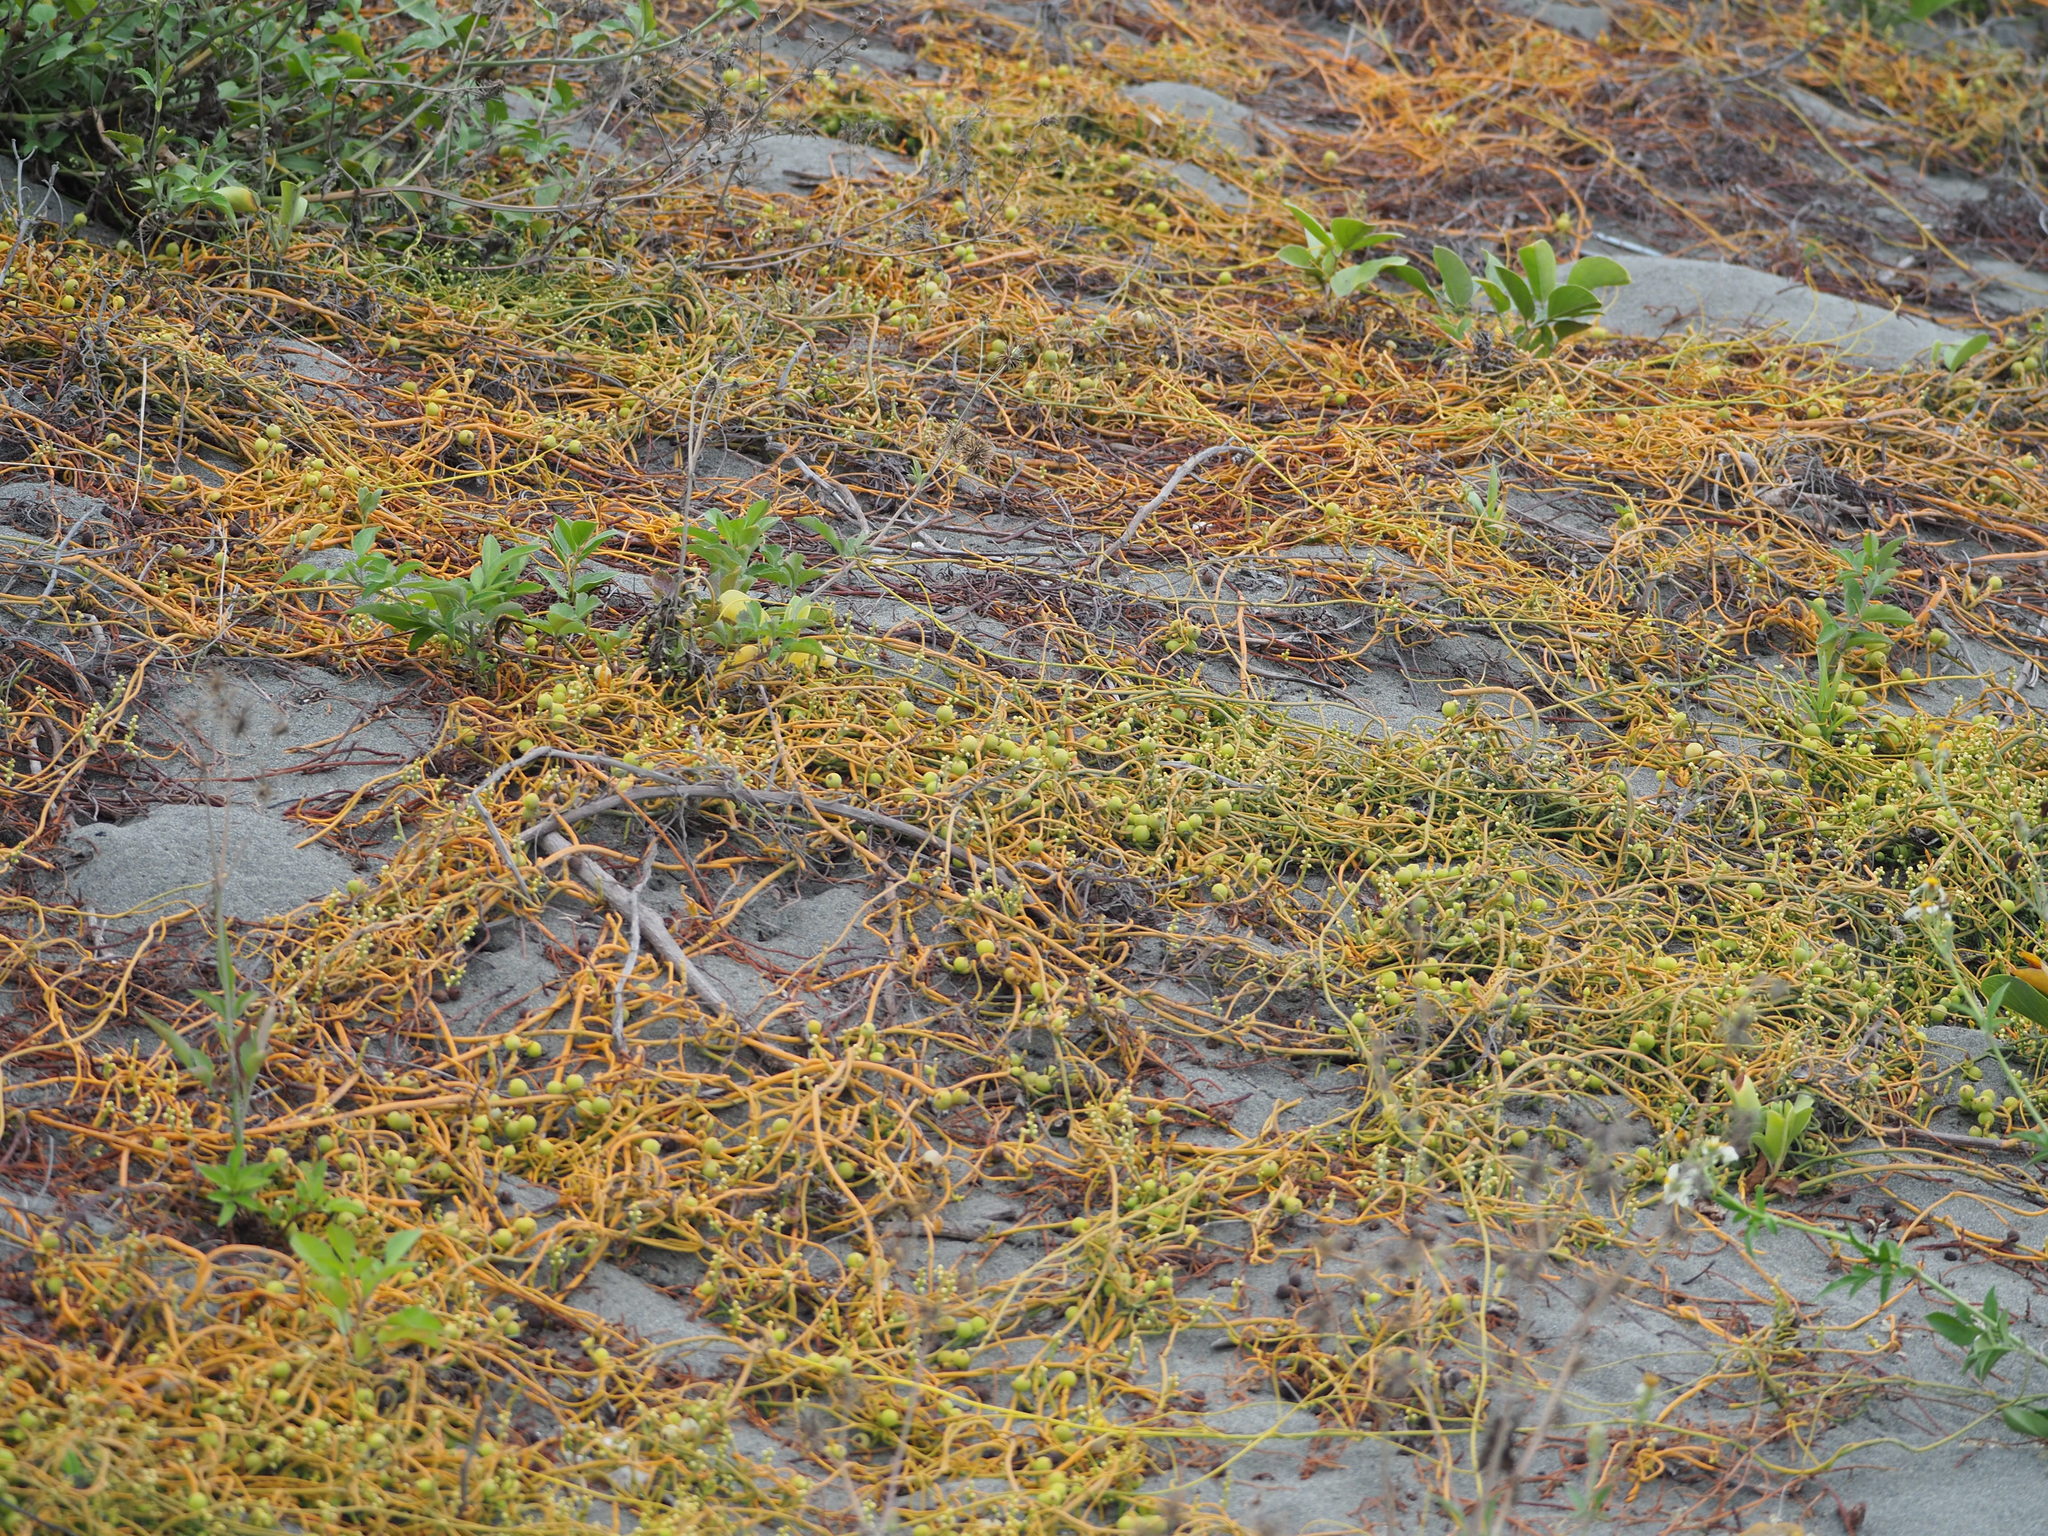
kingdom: Plantae
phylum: Tracheophyta
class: Magnoliopsida
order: Laurales
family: Lauraceae
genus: Cassytha
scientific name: Cassytha filiformis
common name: Dodder-laurel
